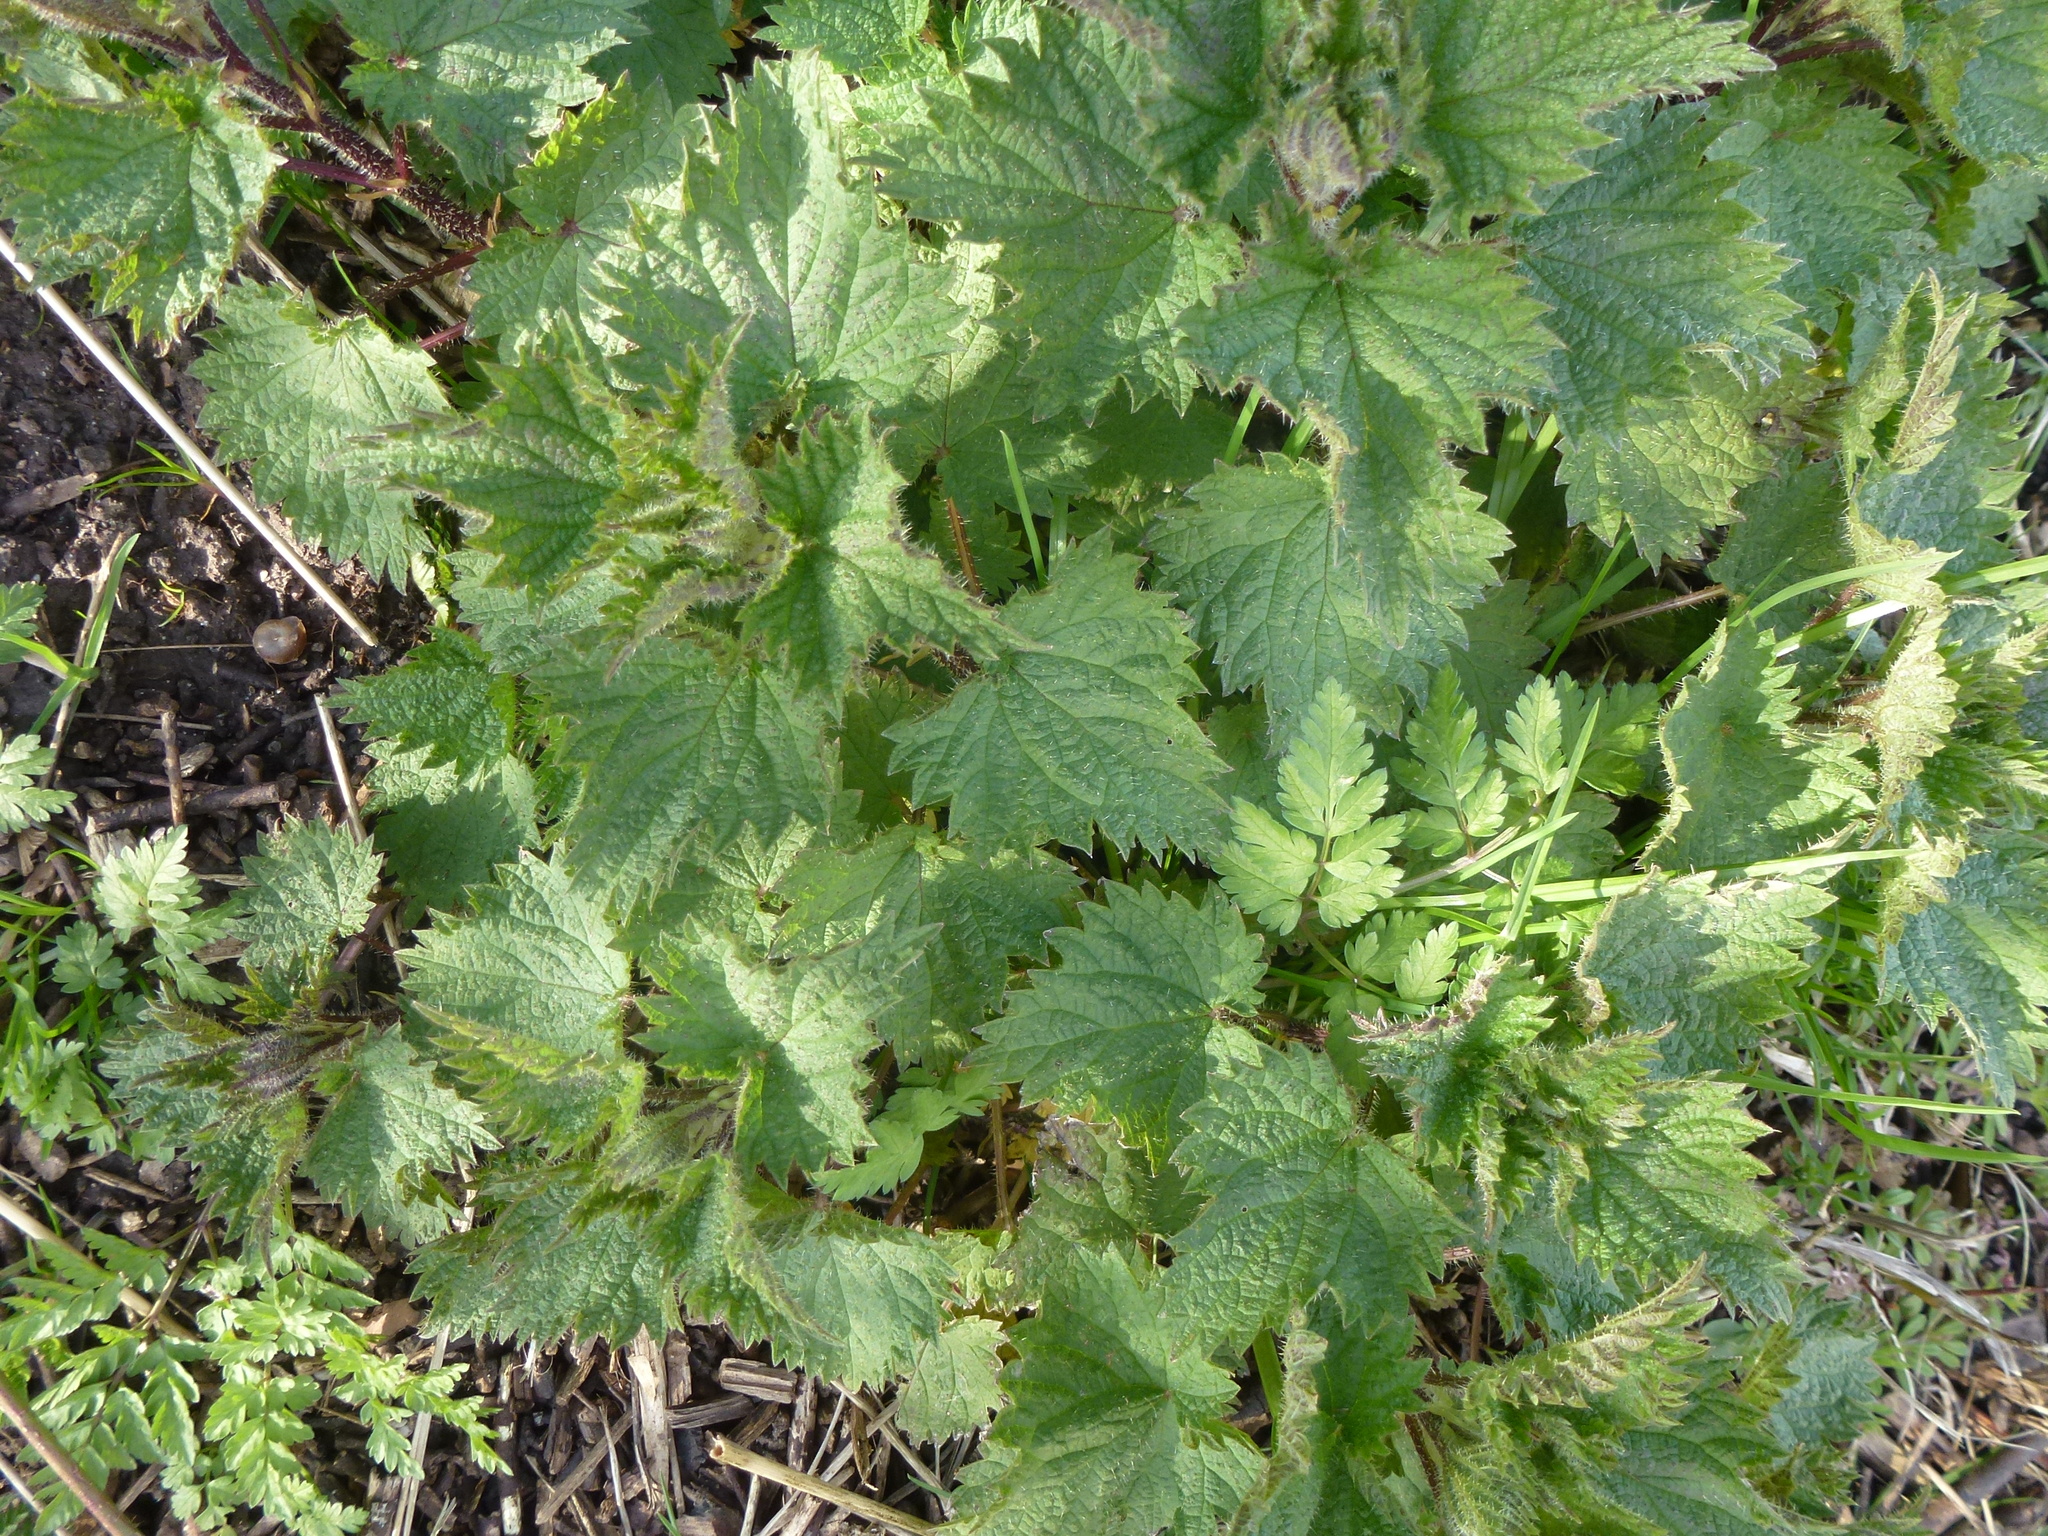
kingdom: Plantae
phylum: Tracheophyta
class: Magnoliopsida
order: Rosales
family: Urticaceae
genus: Urtica
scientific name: Urtica dioica
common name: Common nettle
